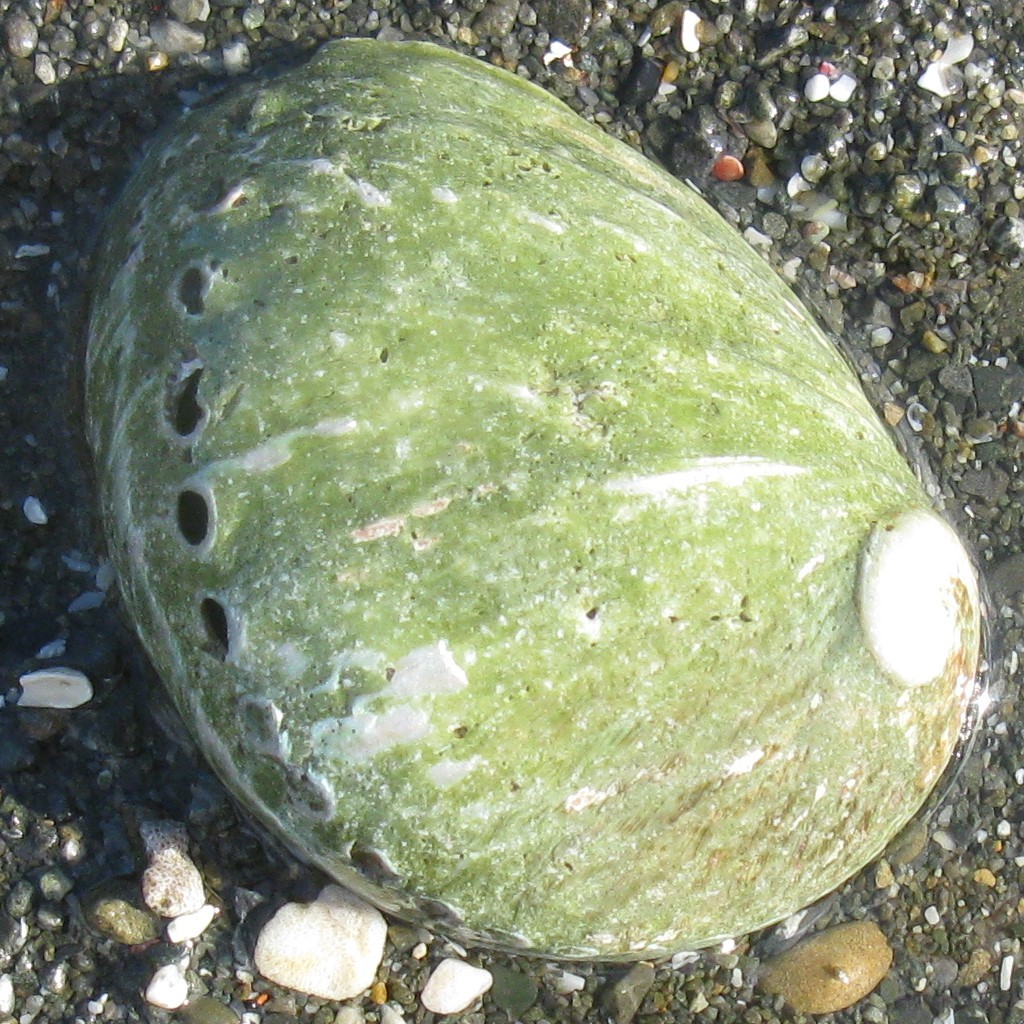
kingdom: Animalia
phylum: Mollusca
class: Gastropoda
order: Lepetellida
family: Haliotidae
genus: Haliotis
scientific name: Haliotis australis
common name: Silver abalone
